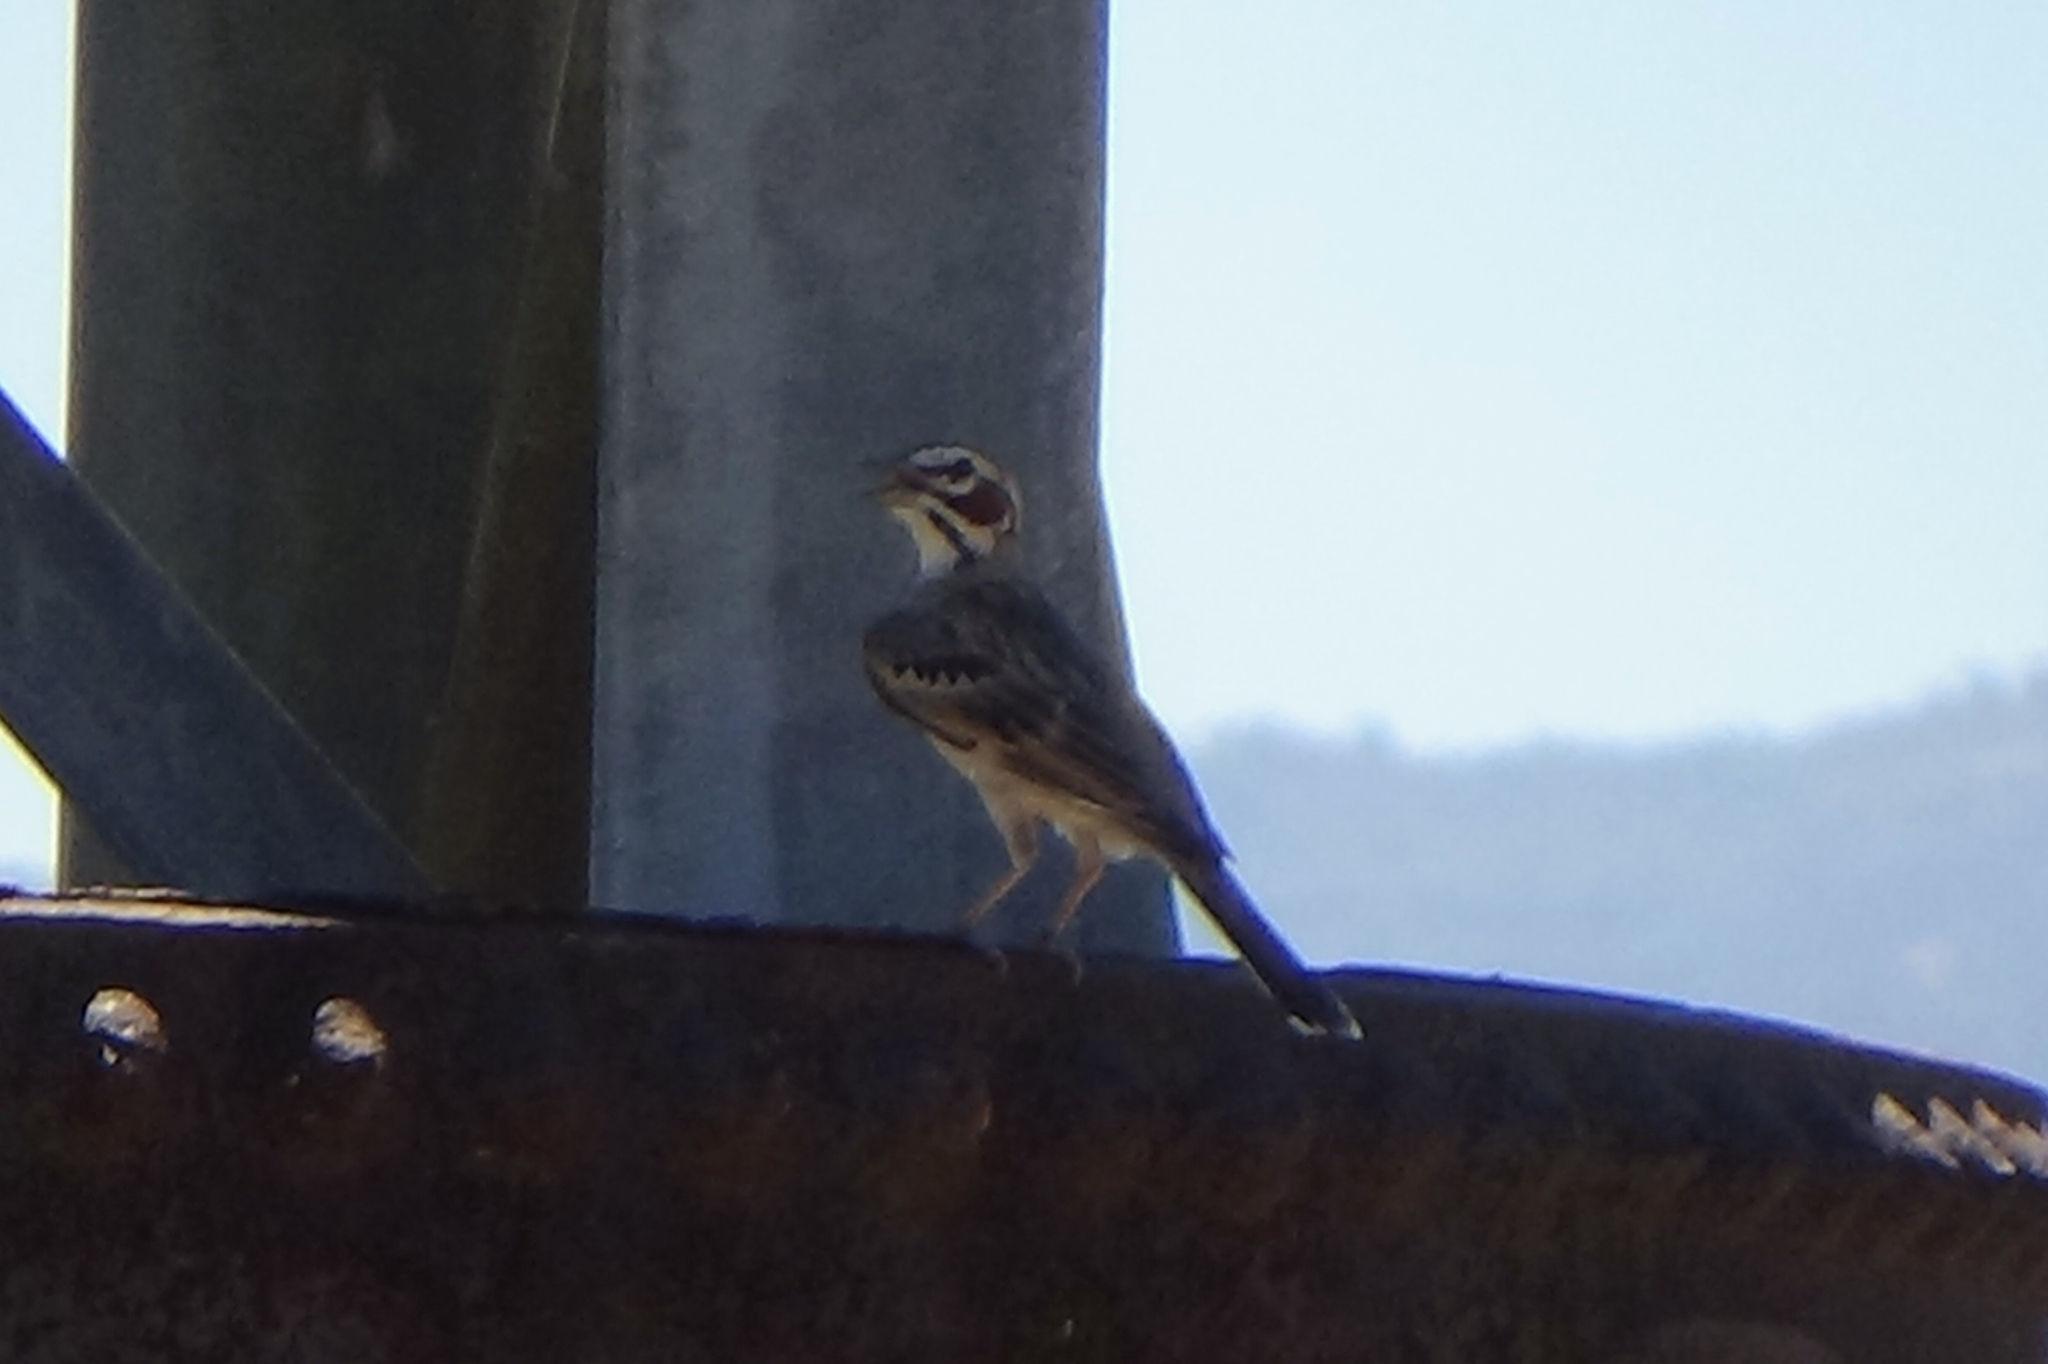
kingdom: Animalia
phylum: Chordata
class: Aves
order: Passeriformes
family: Passerellidae
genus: Chondestes
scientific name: Chondestes grammacus
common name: Lark sparrow
